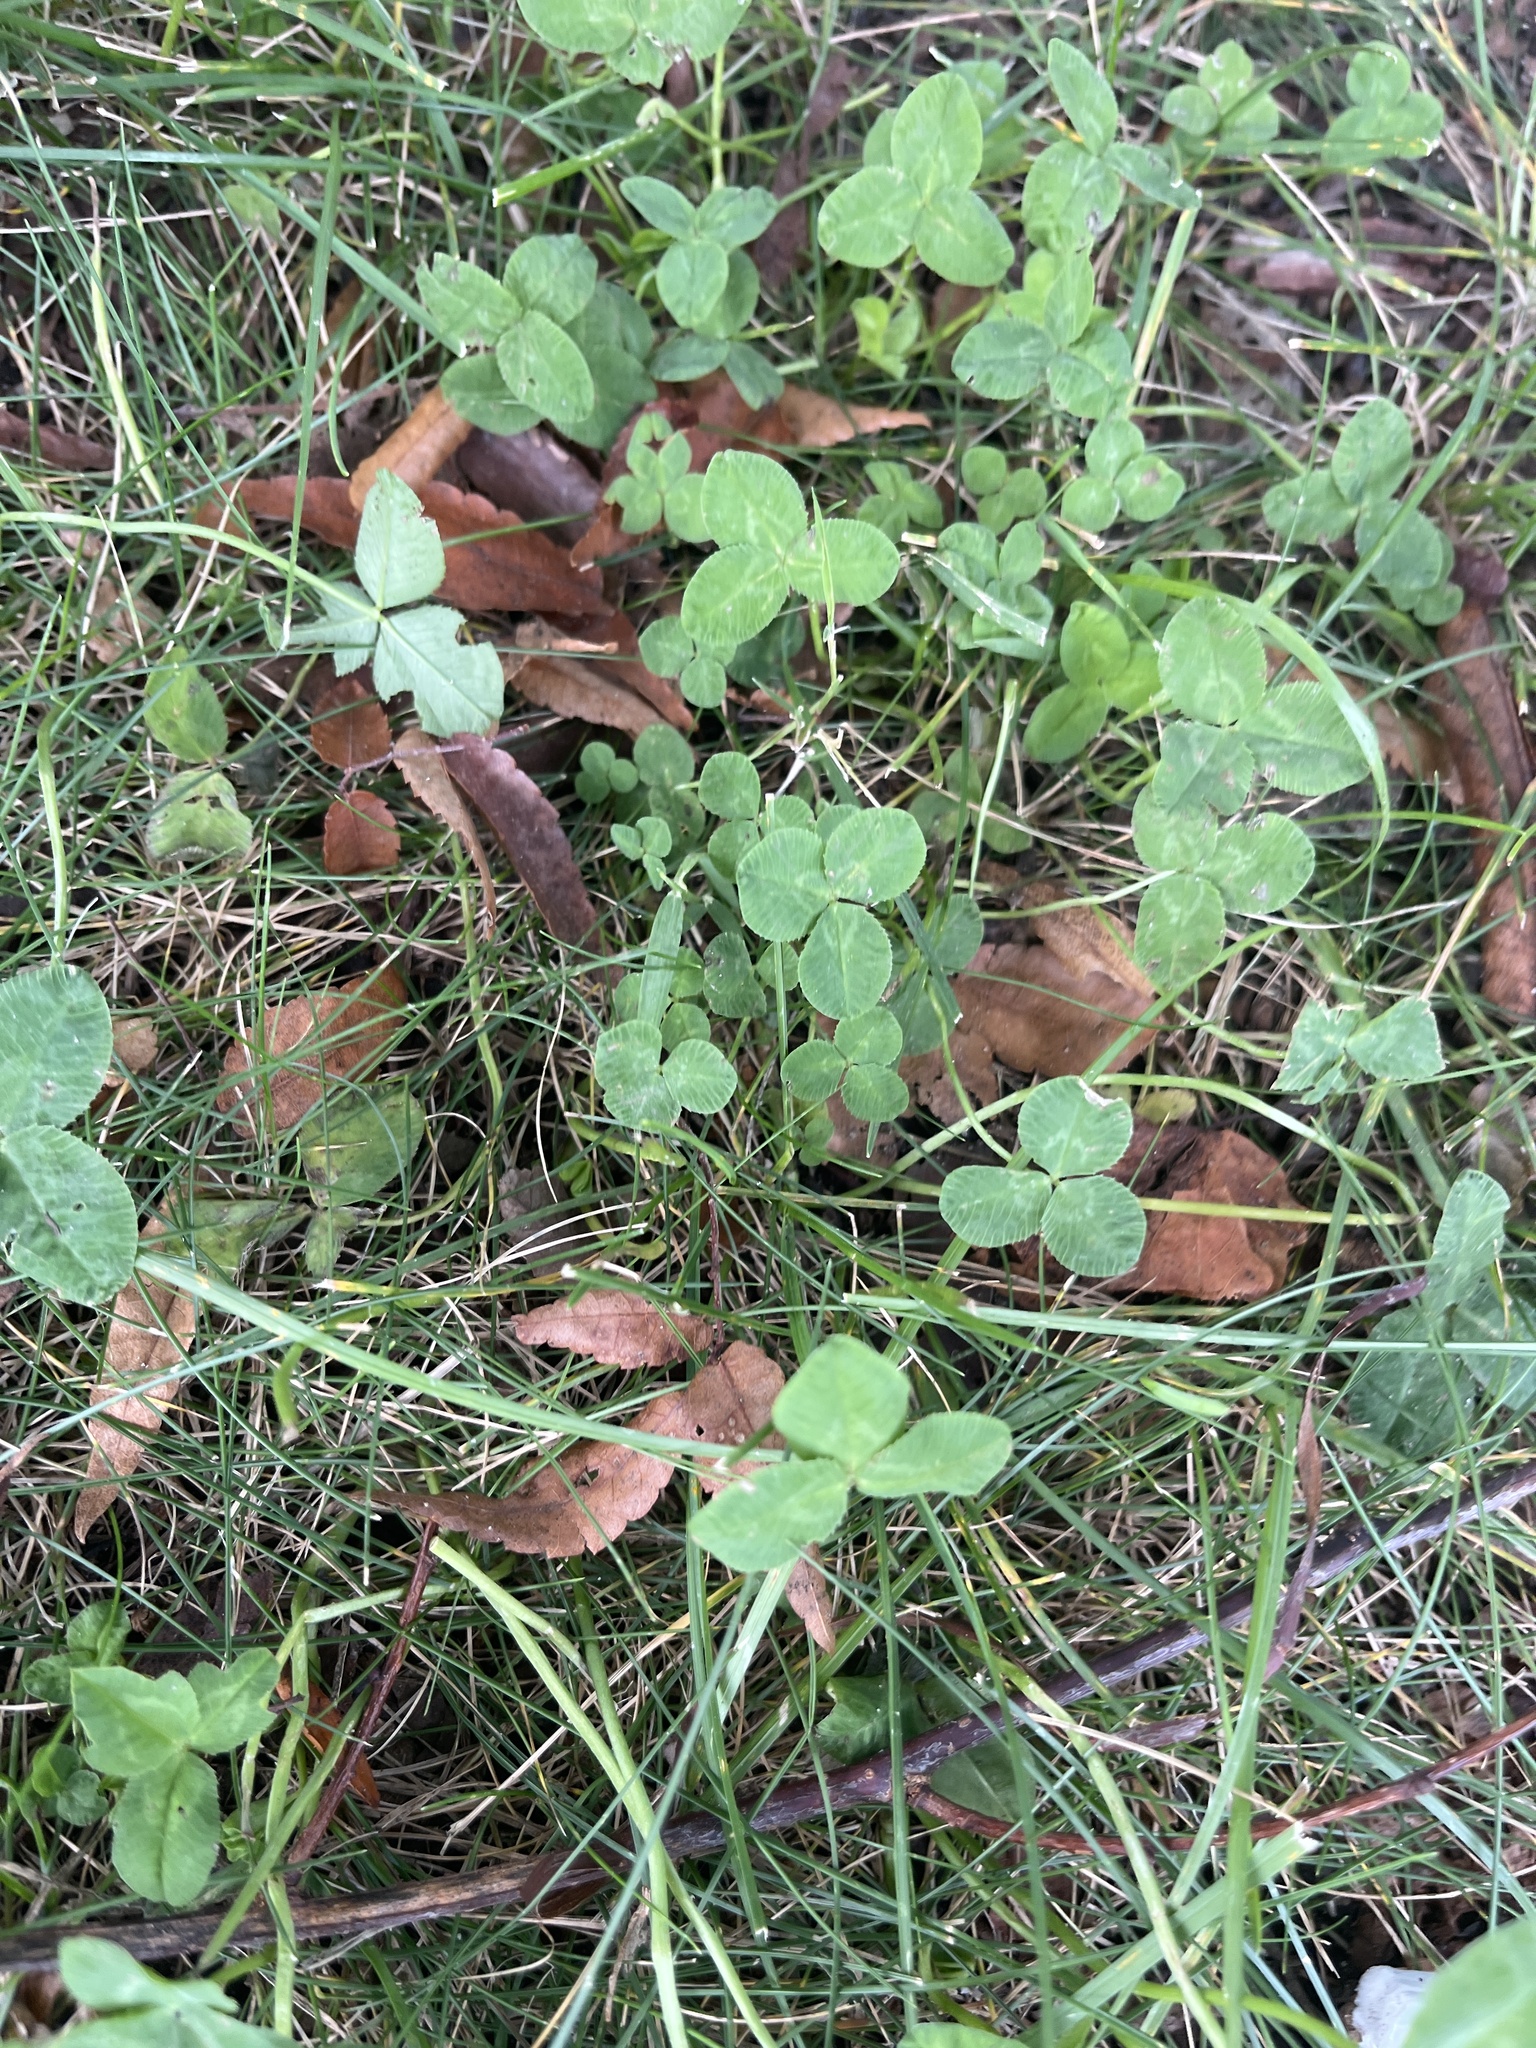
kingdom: Plantae
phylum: Tracheophyta
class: Magnoliopsida
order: Fabales
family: Fabaceae
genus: Trifolium
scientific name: Trifolium repens
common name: White clover
